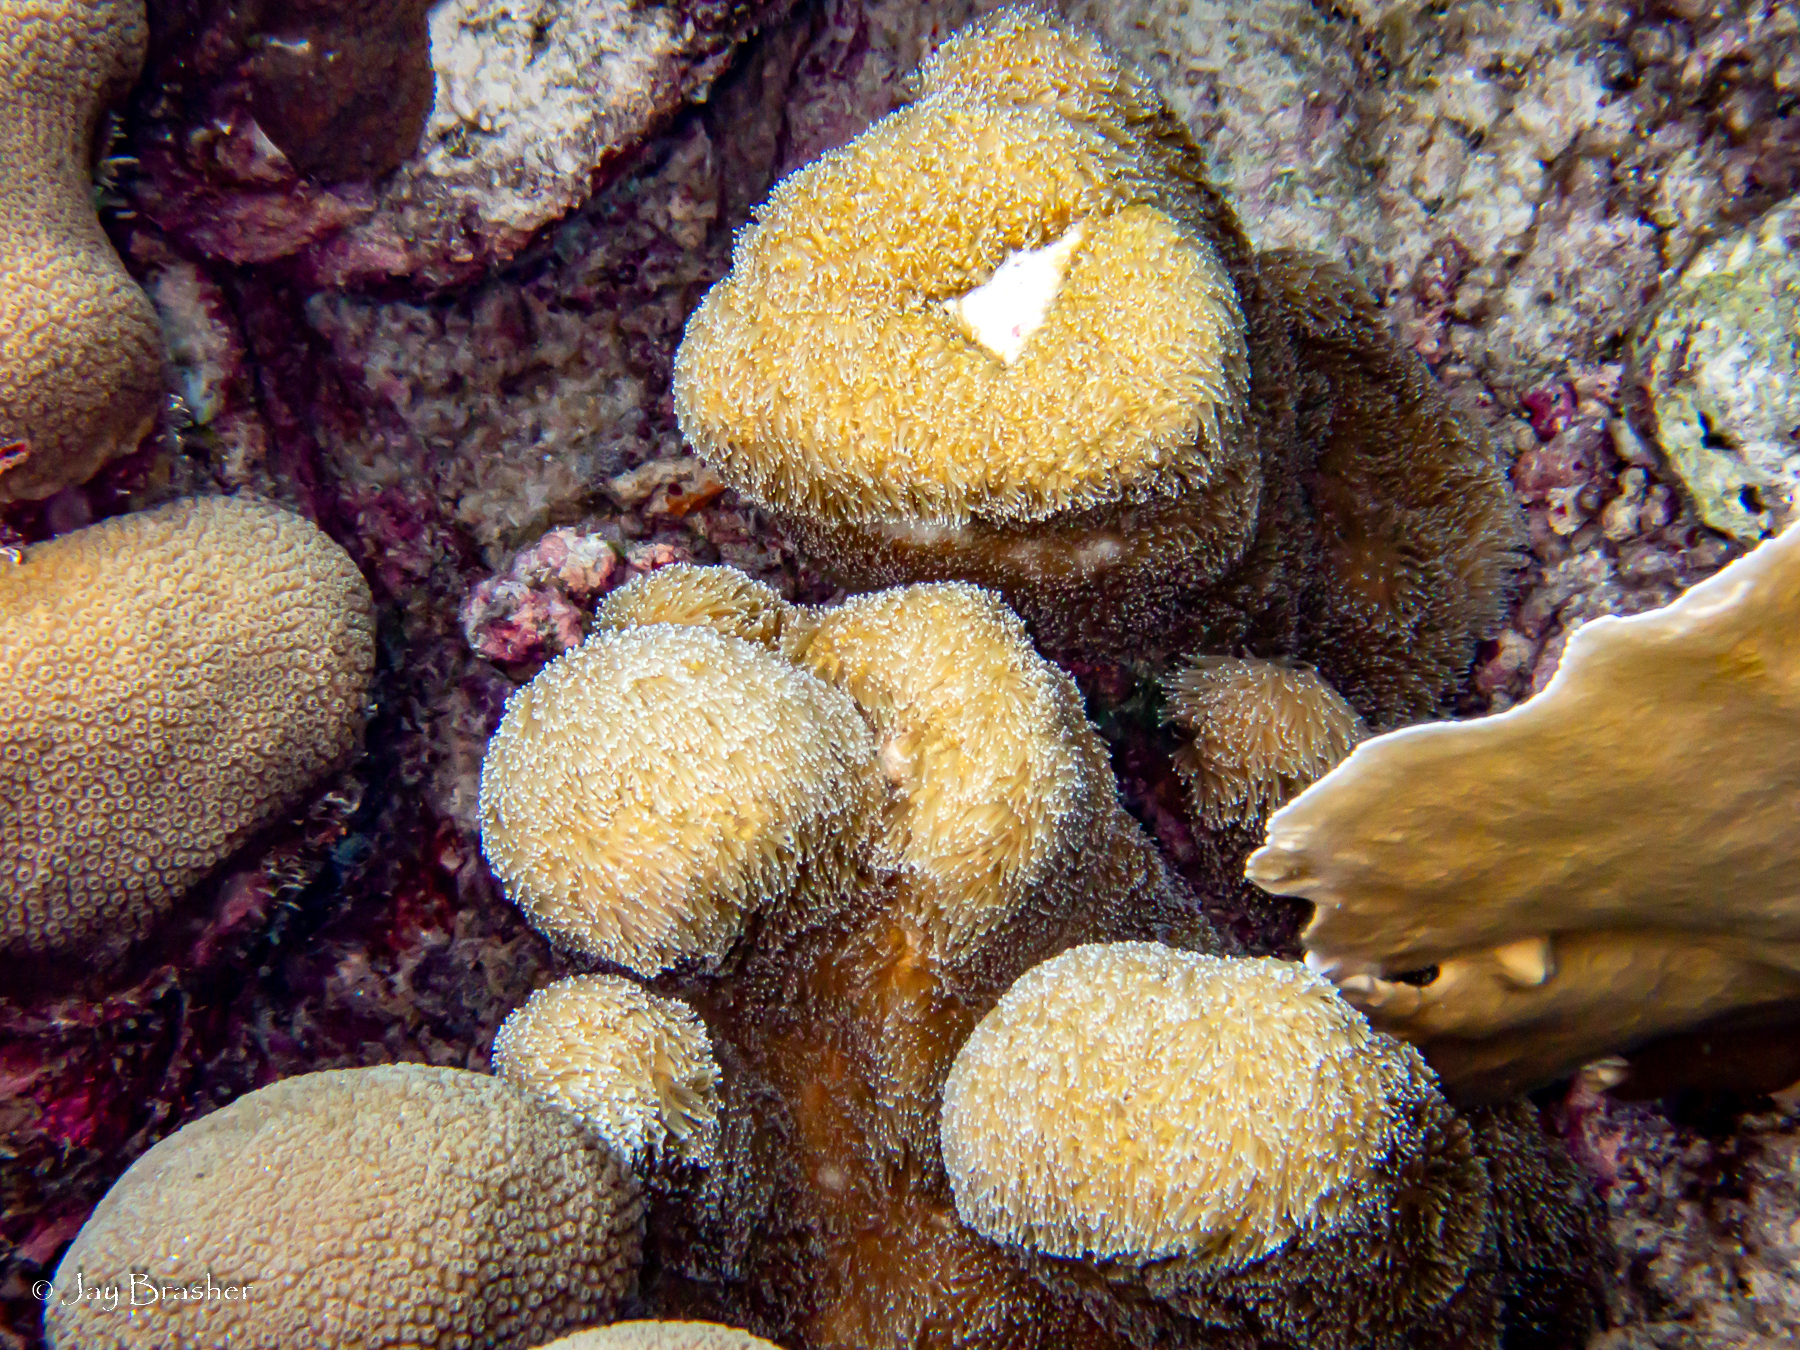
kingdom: Animalia
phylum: Cnidaria
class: Anthozoa
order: Scleractinia
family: Meandrinidae
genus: Dendrogyra
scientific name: Dendrogyra cylindrus
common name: Pillar coral
